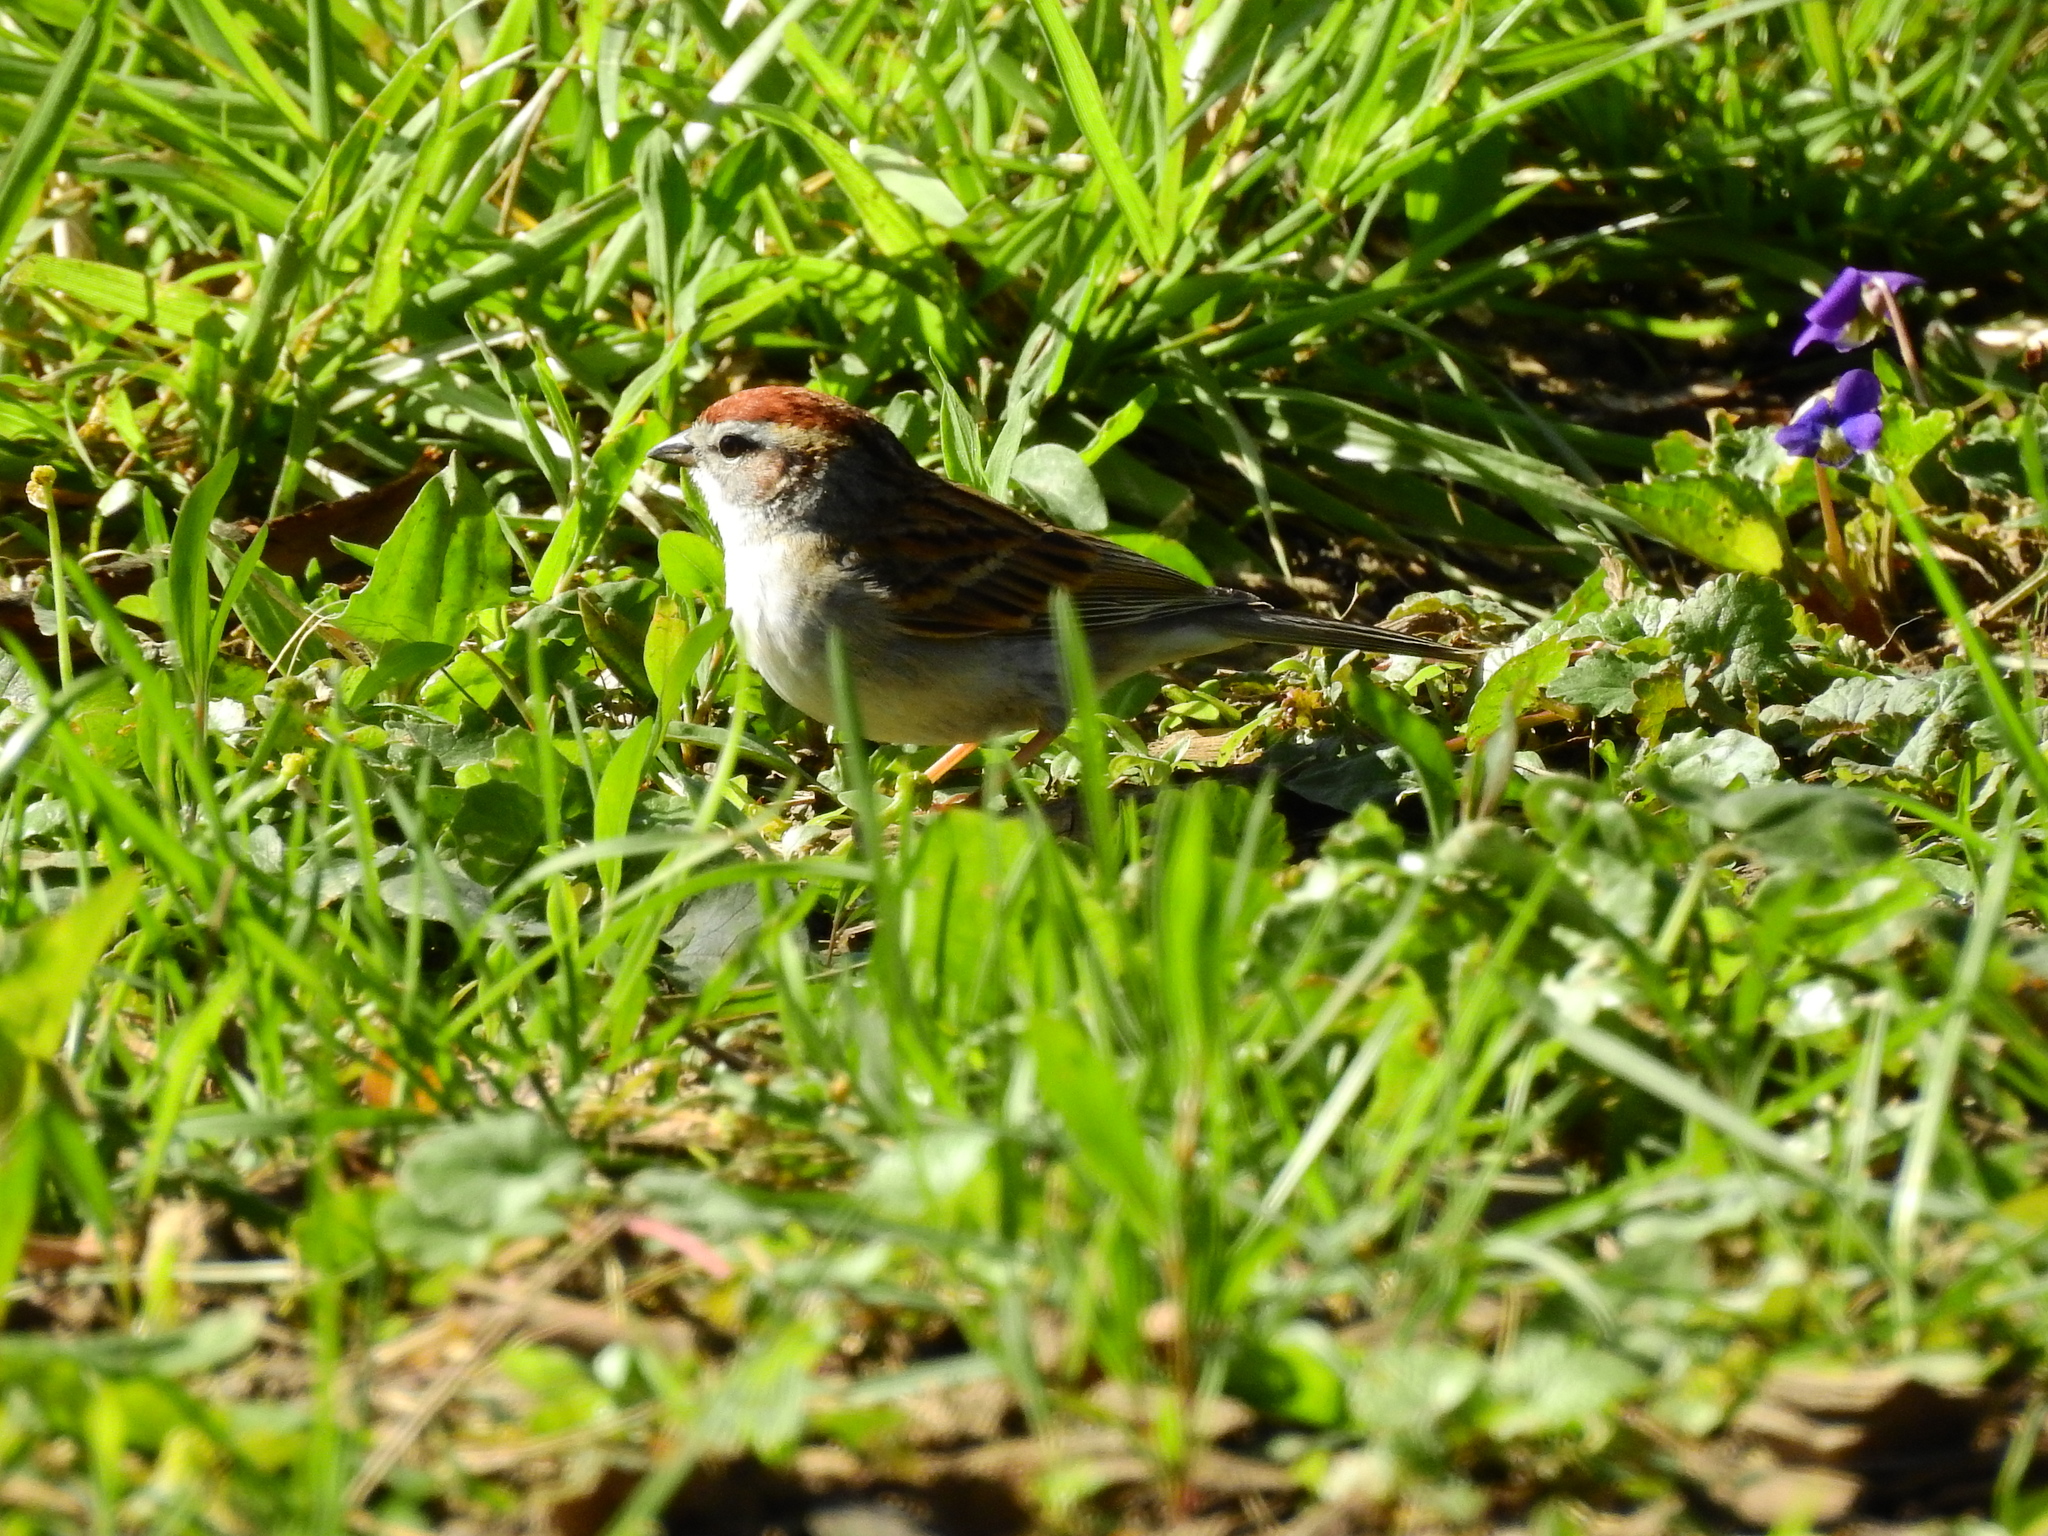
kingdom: Animalia
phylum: Chordata
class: Aves
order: Passeriformes
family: Passerellidae
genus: Spizella
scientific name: Spizella passerina
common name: Chipping sparrow
